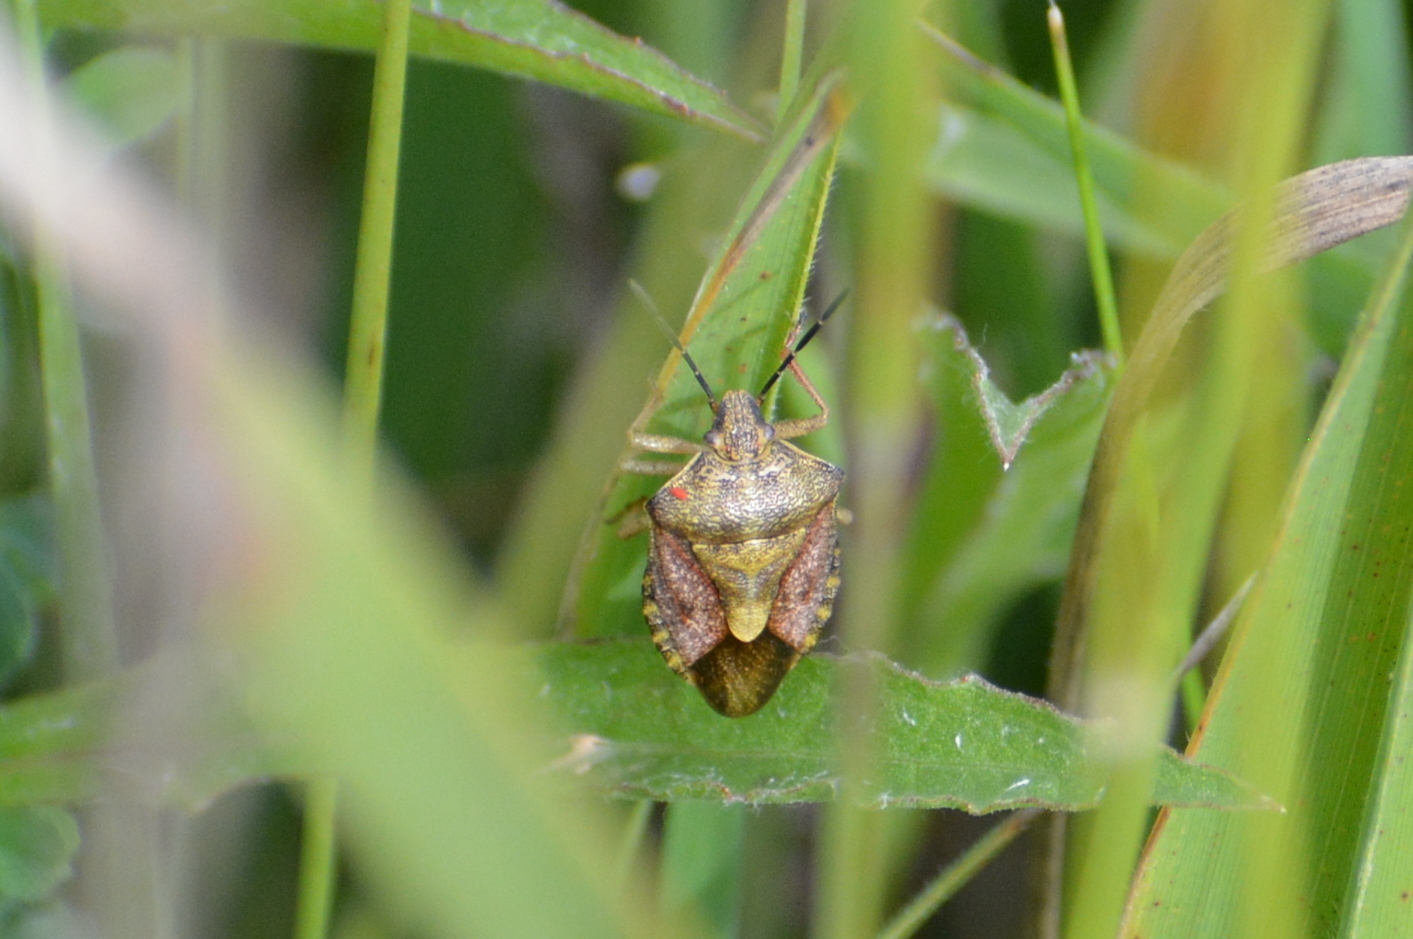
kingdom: Animalia
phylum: Arthropoda
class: Insecta
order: Hemiptera
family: Pentatomidae
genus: Carpocoris
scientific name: Carpocoris purpureipennis
